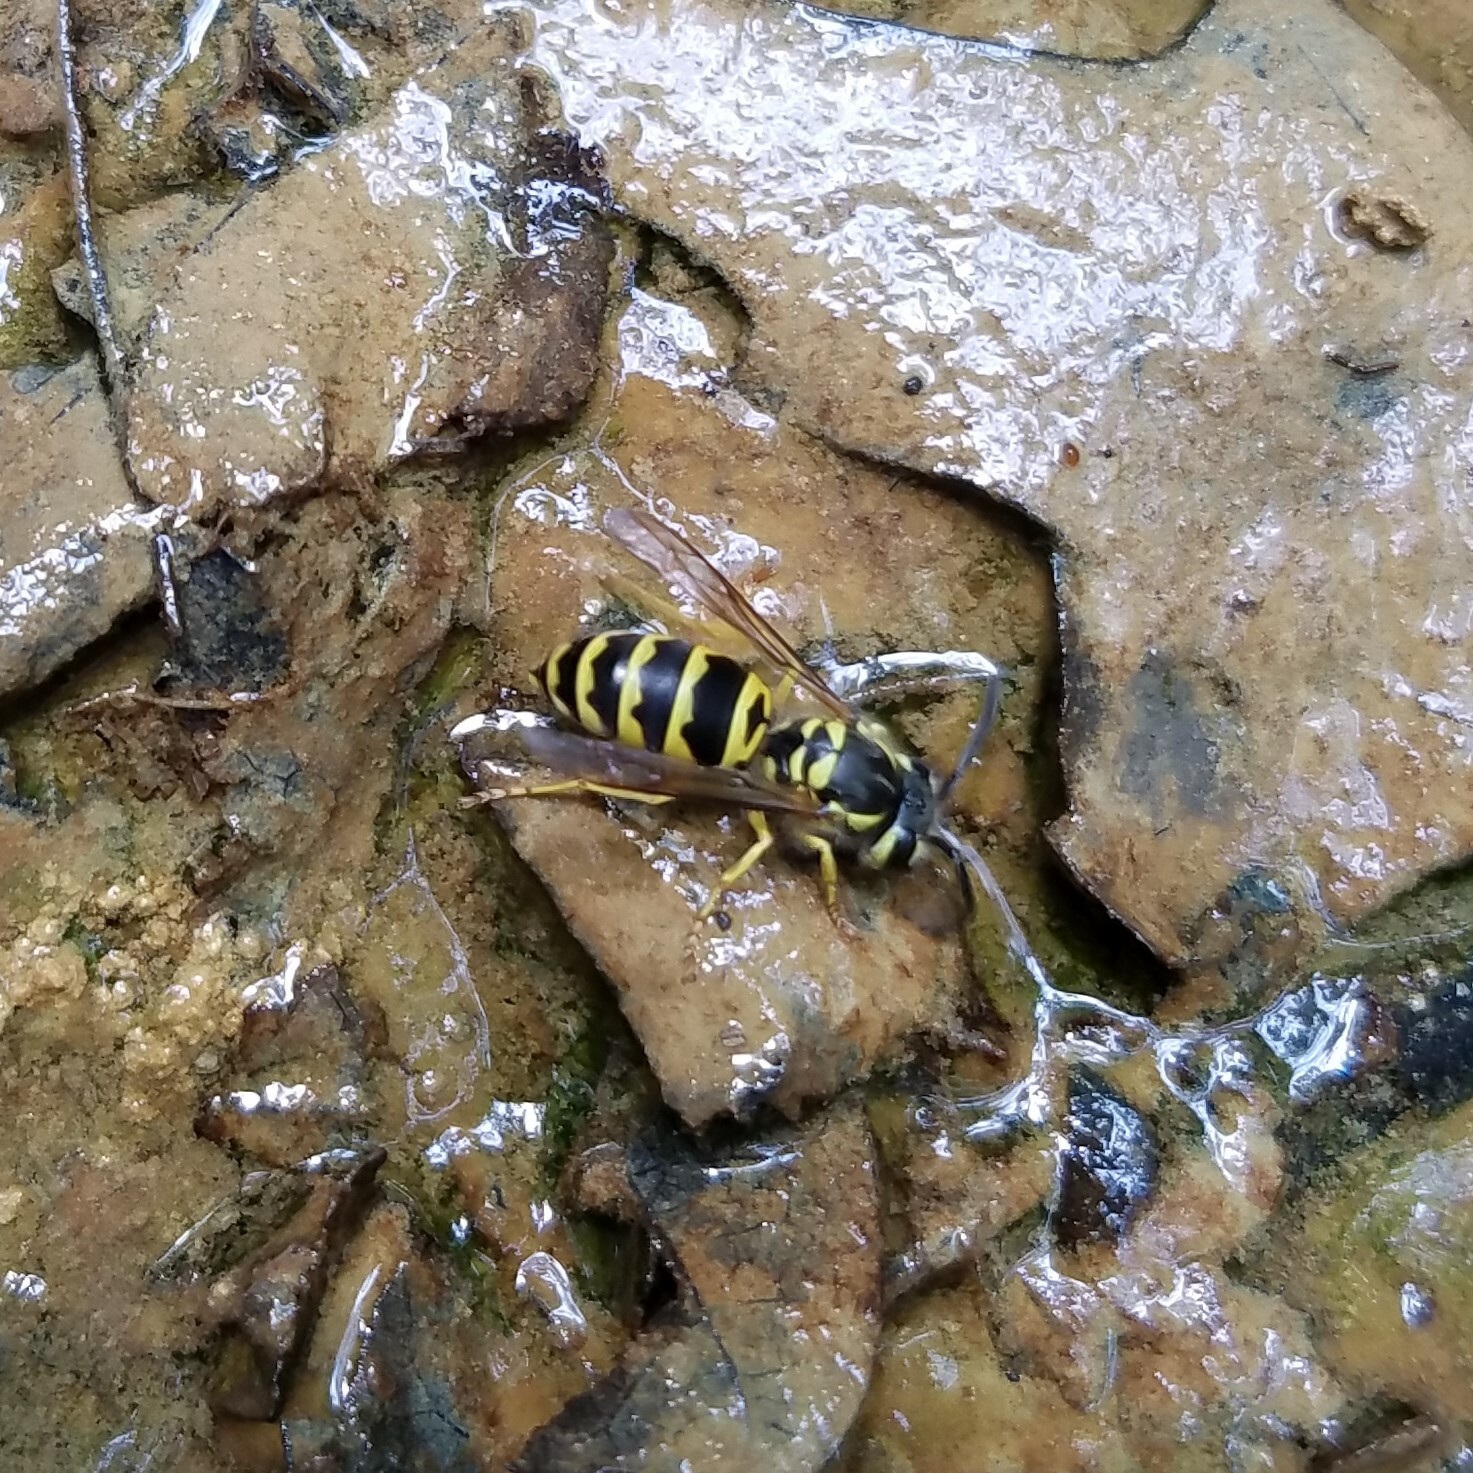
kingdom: Animalia
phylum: Arthropoda
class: Insecta
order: Hymenoptera
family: Vespidae
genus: Vespula
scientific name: Vespula maculifrons
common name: Eastern yellowjacket
